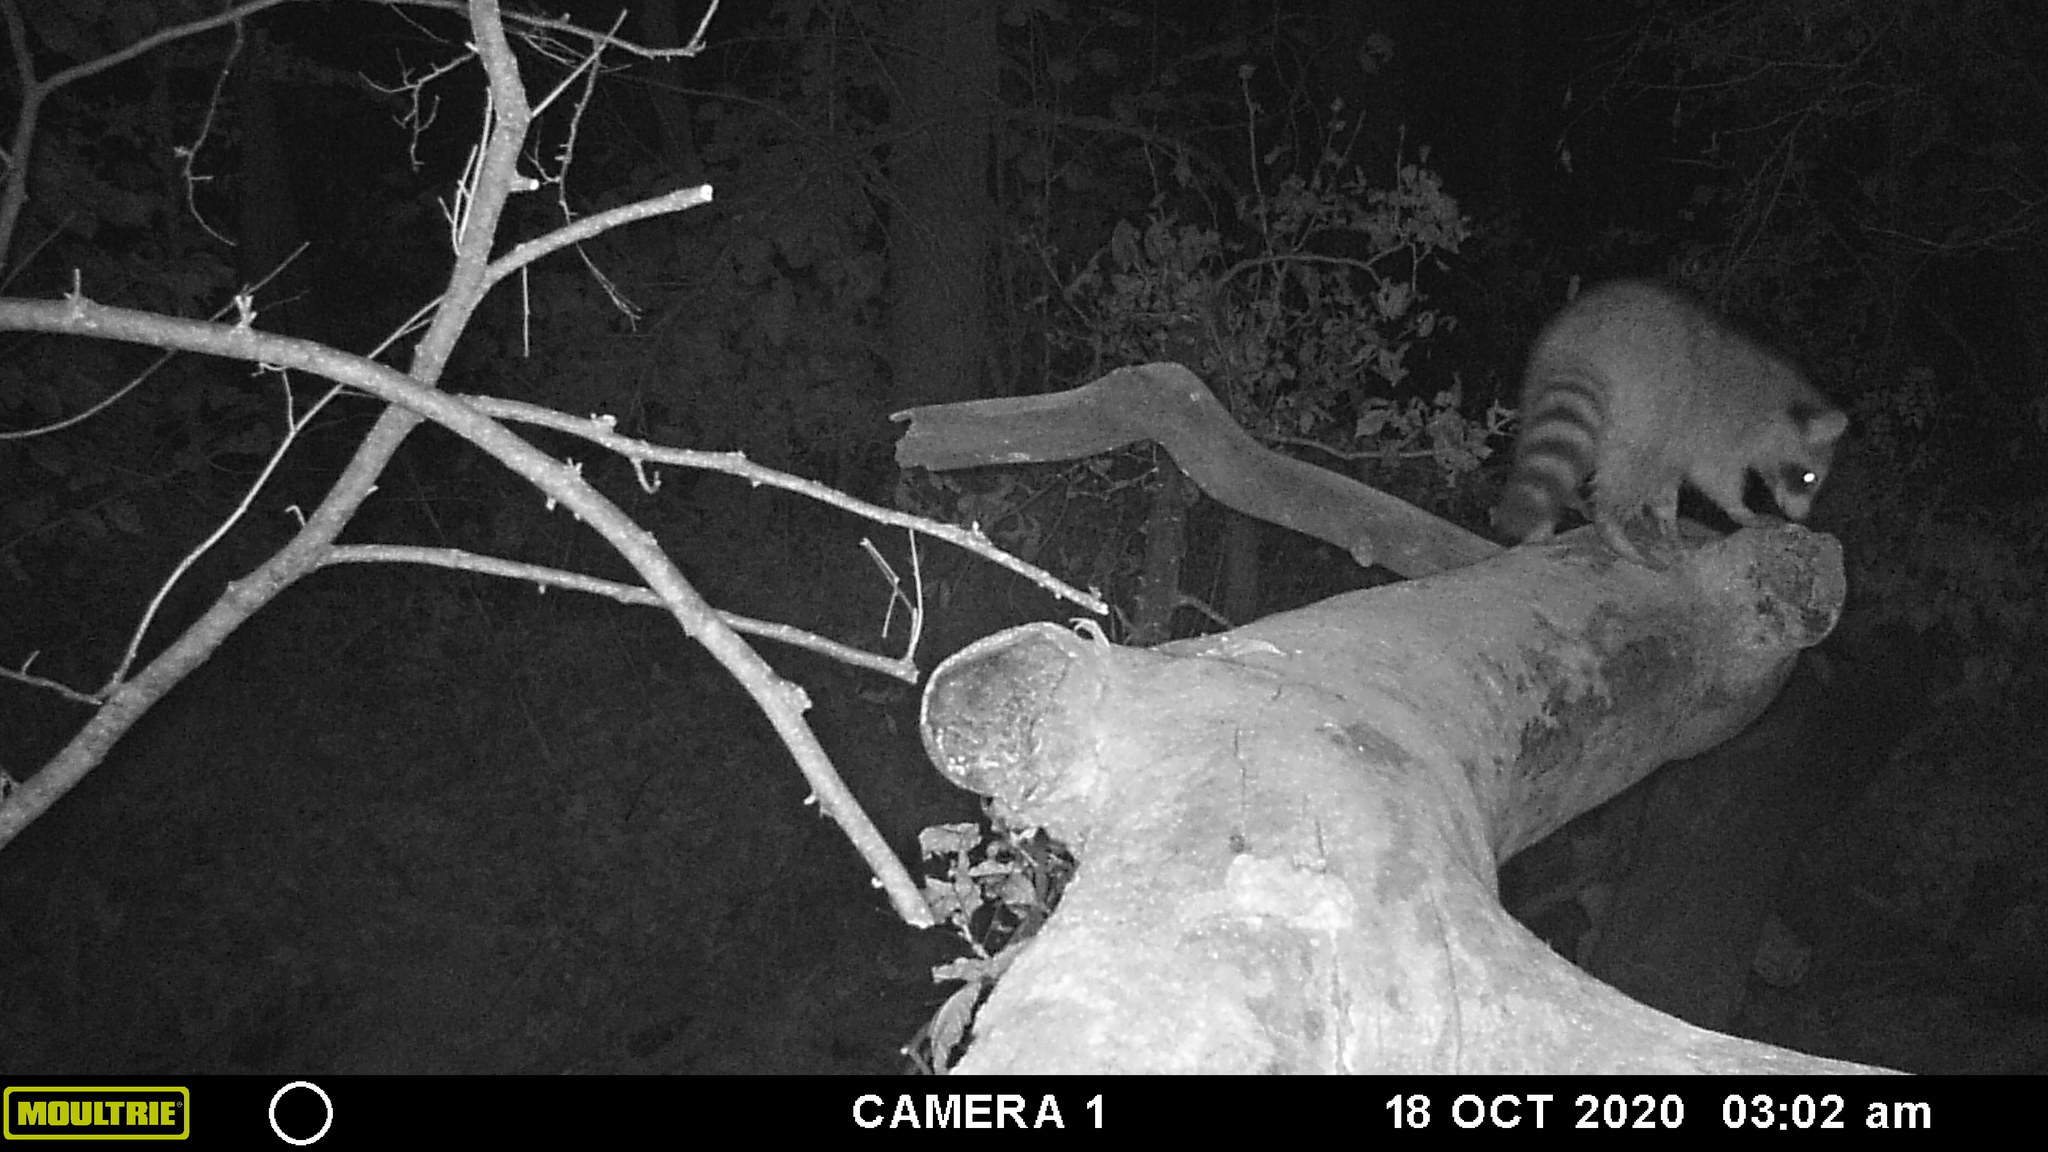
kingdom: Animalia
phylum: Chordata
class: Mammalia
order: Carnivora
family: Procyonidae
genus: Procyon
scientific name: Procyon lotor
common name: Raccoon
